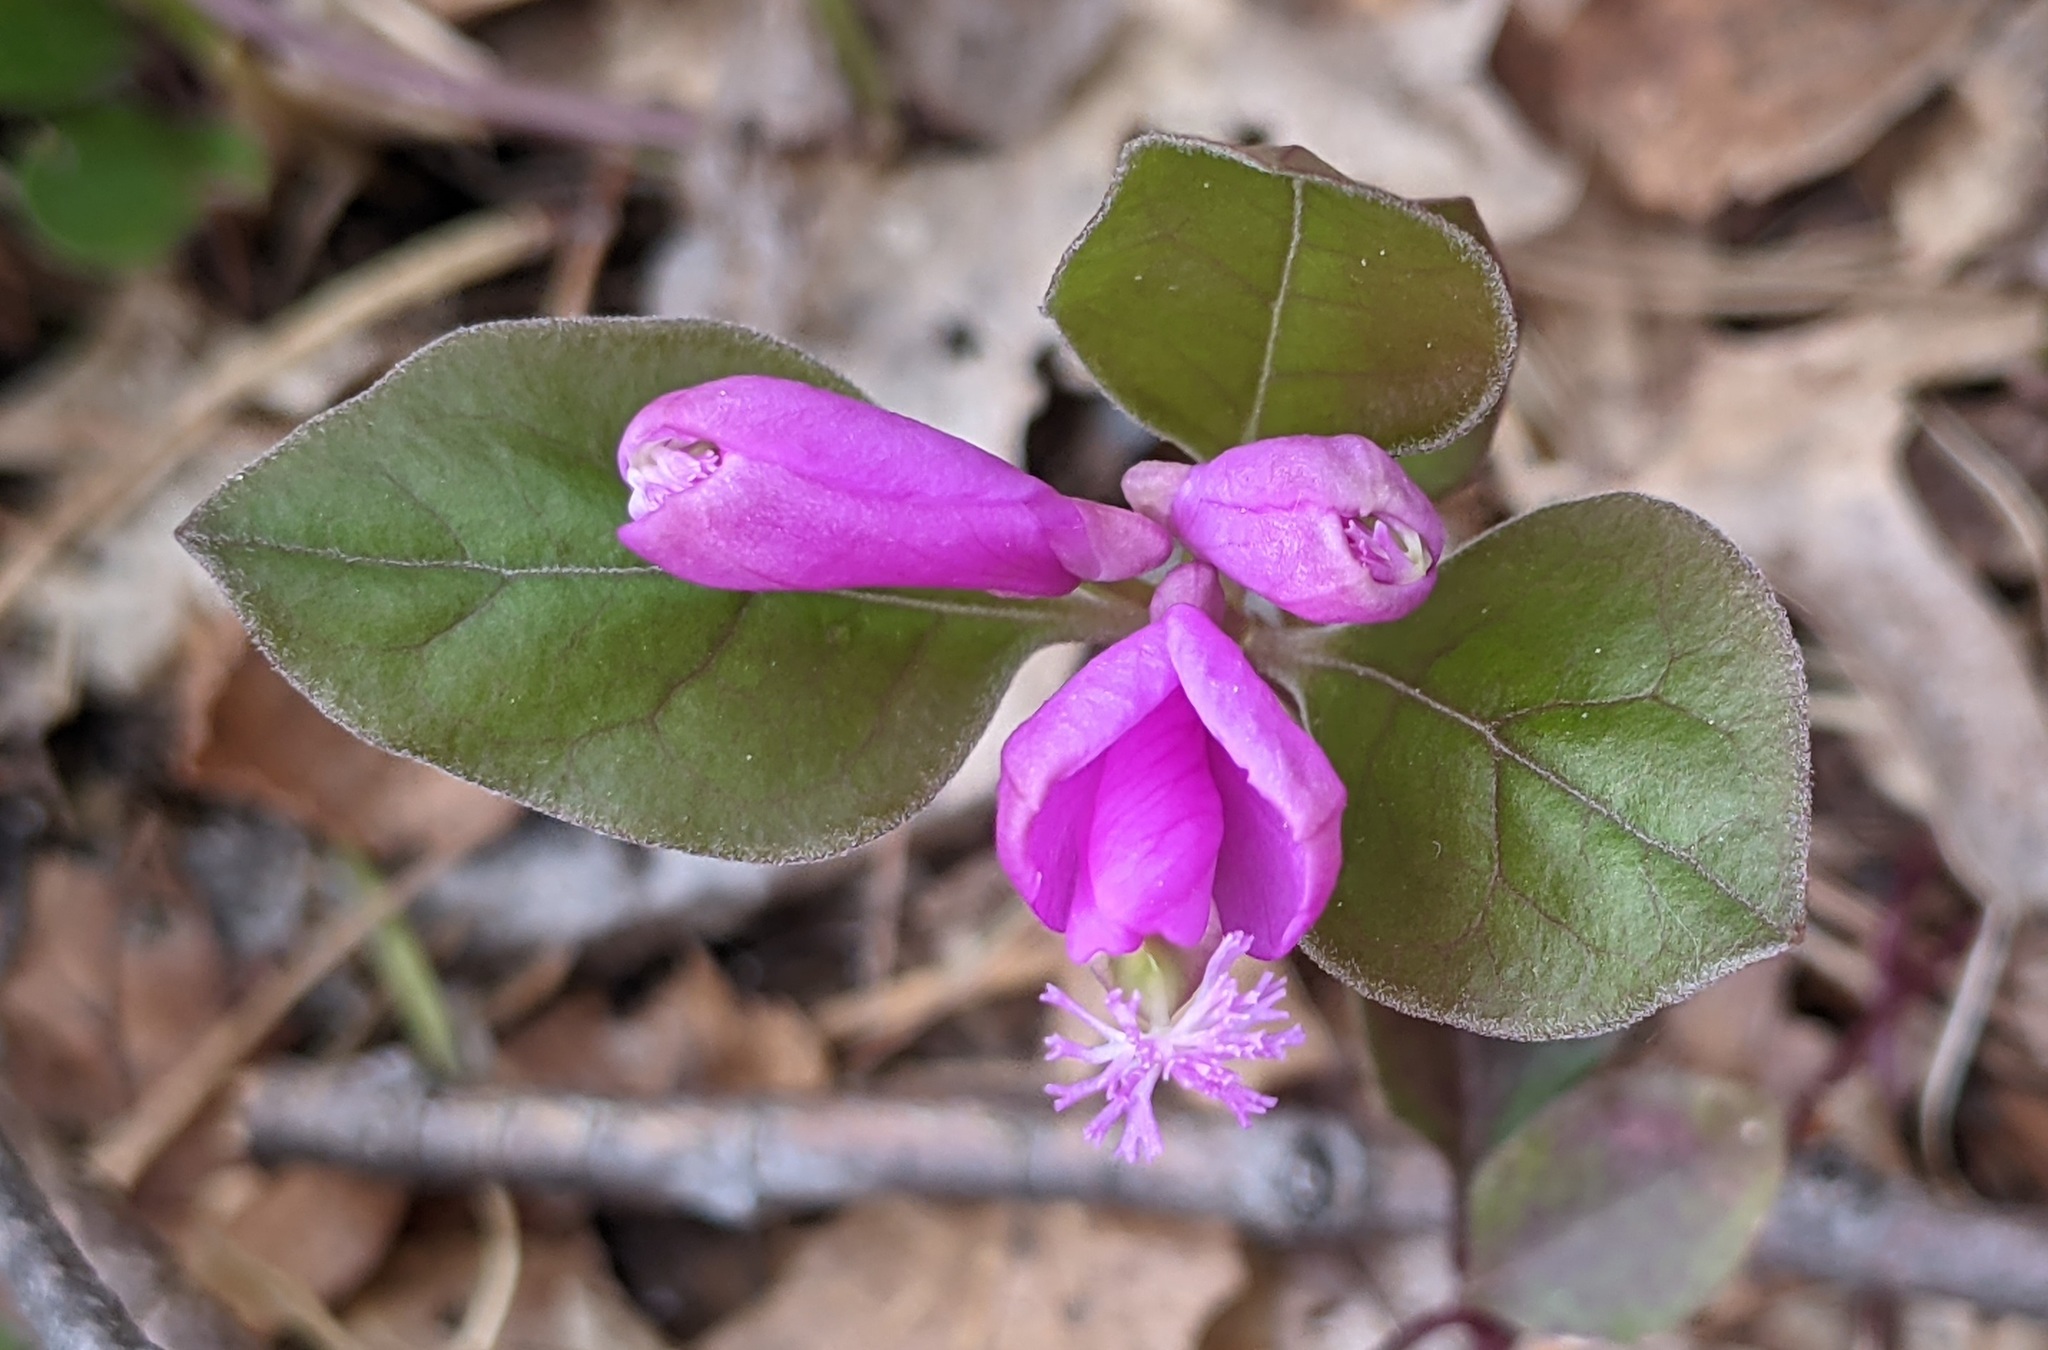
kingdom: Plantae
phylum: Tracheophyta
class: Magnoliopsida
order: Fabales
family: Polygalaceae
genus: Polygaloides
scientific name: Polygaloides paucifolia
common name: Bird-on-the-wing
